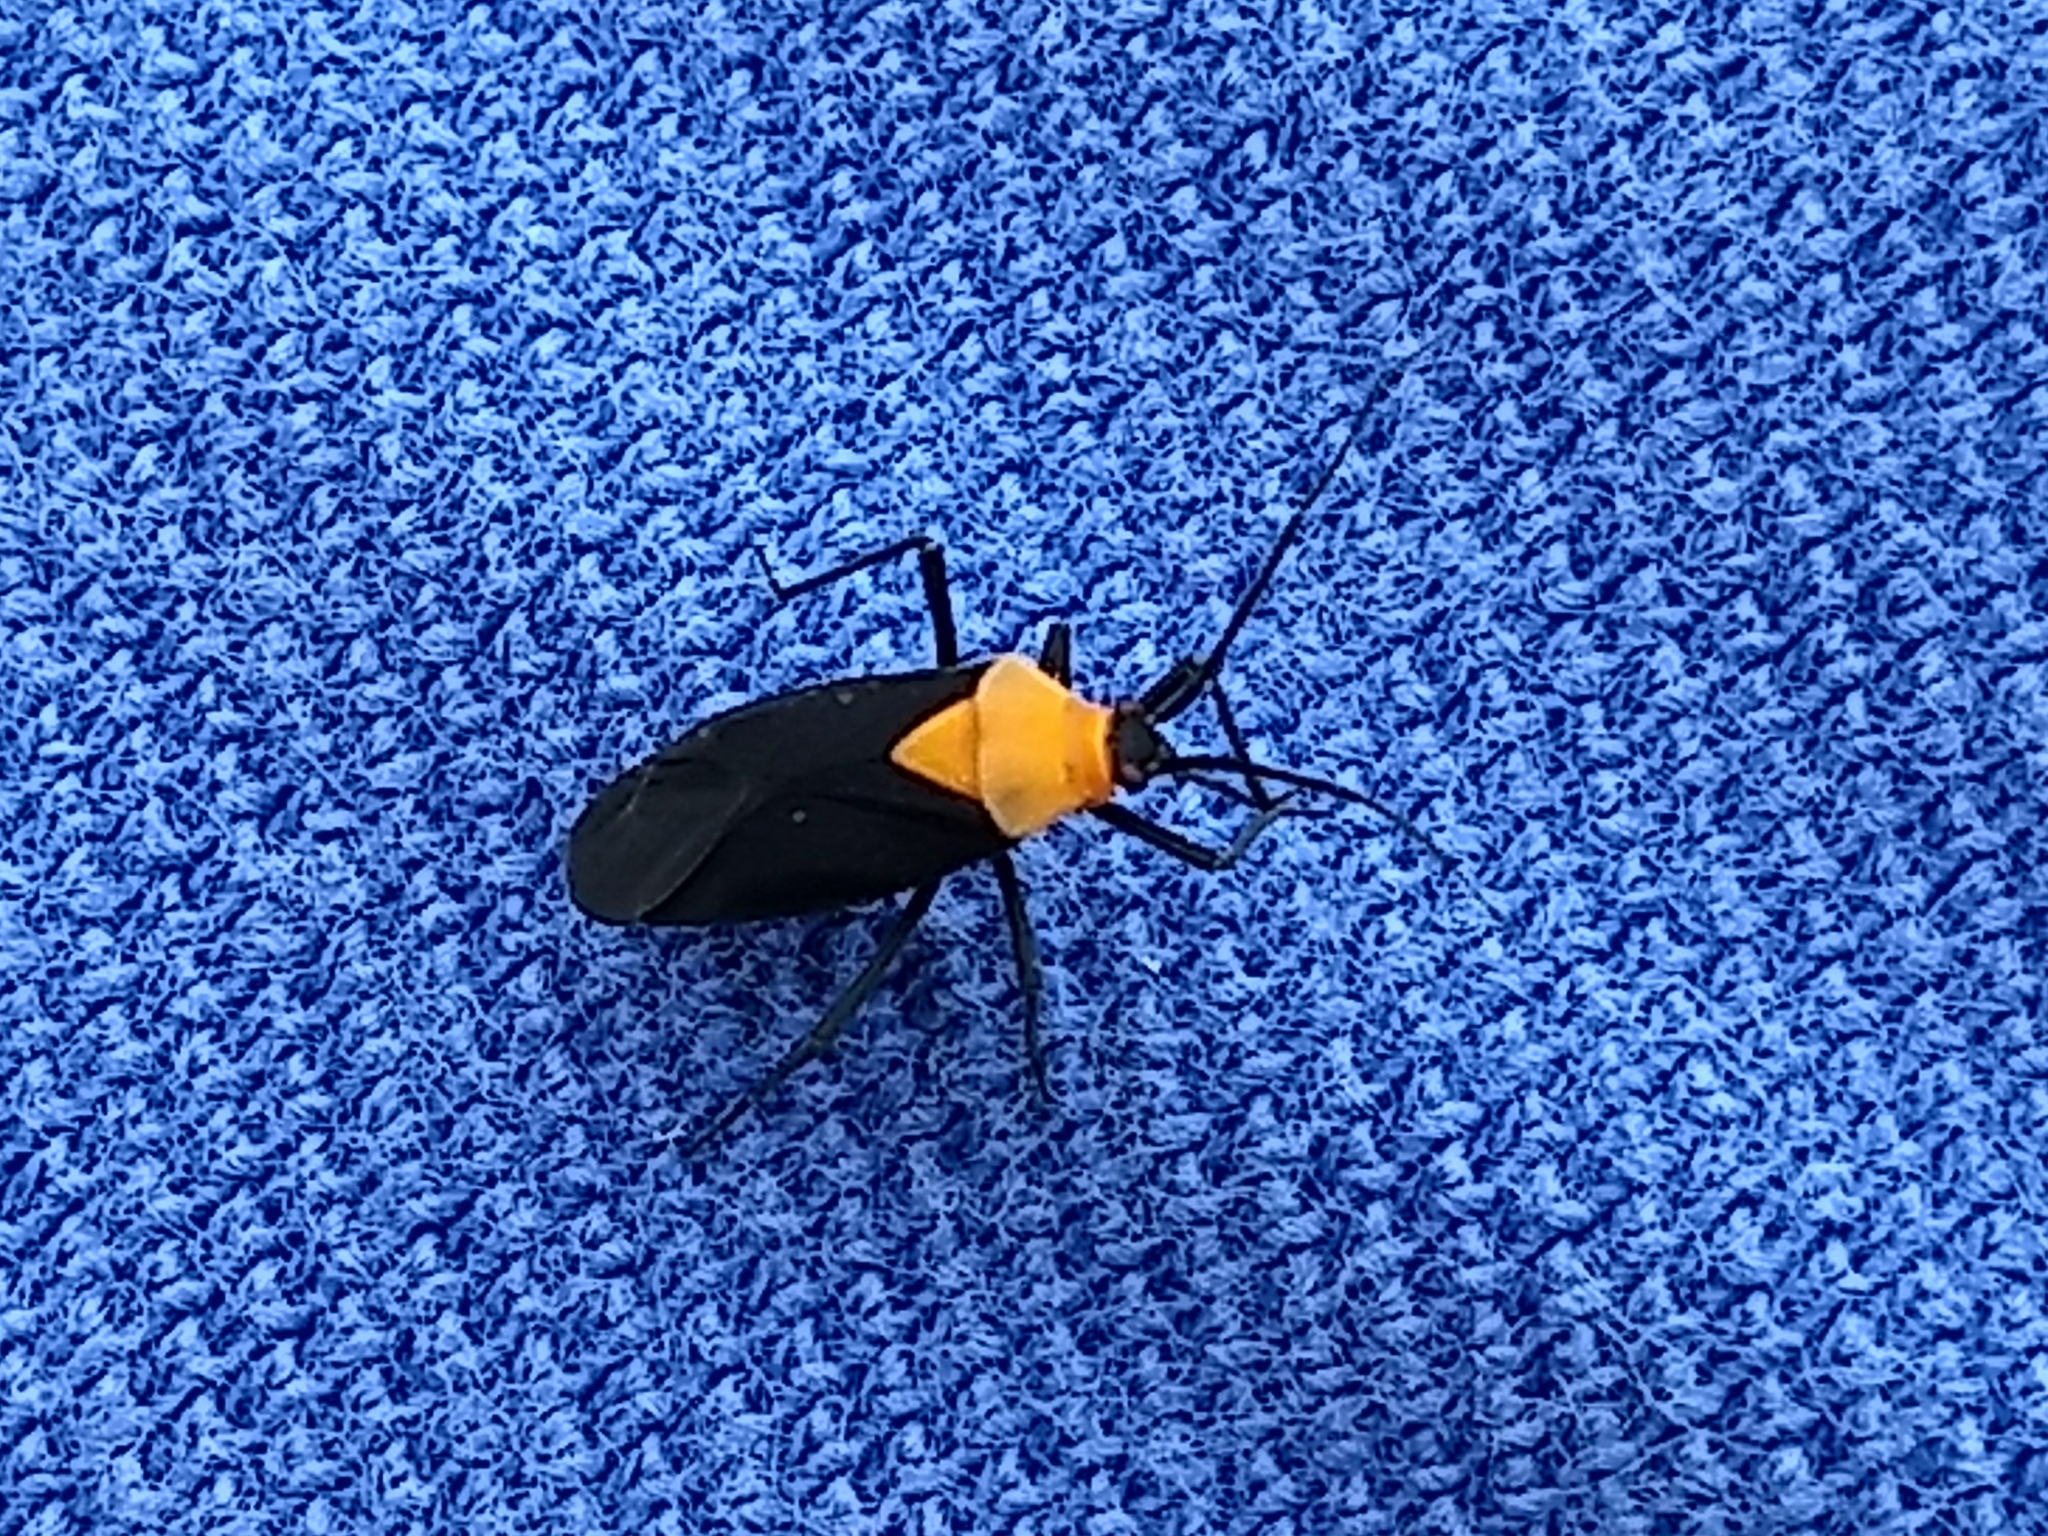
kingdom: Animalia
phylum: Arthropoda
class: Insecta
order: Hemiptera
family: Miridae
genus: Prepops
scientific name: Prepops insitivus
